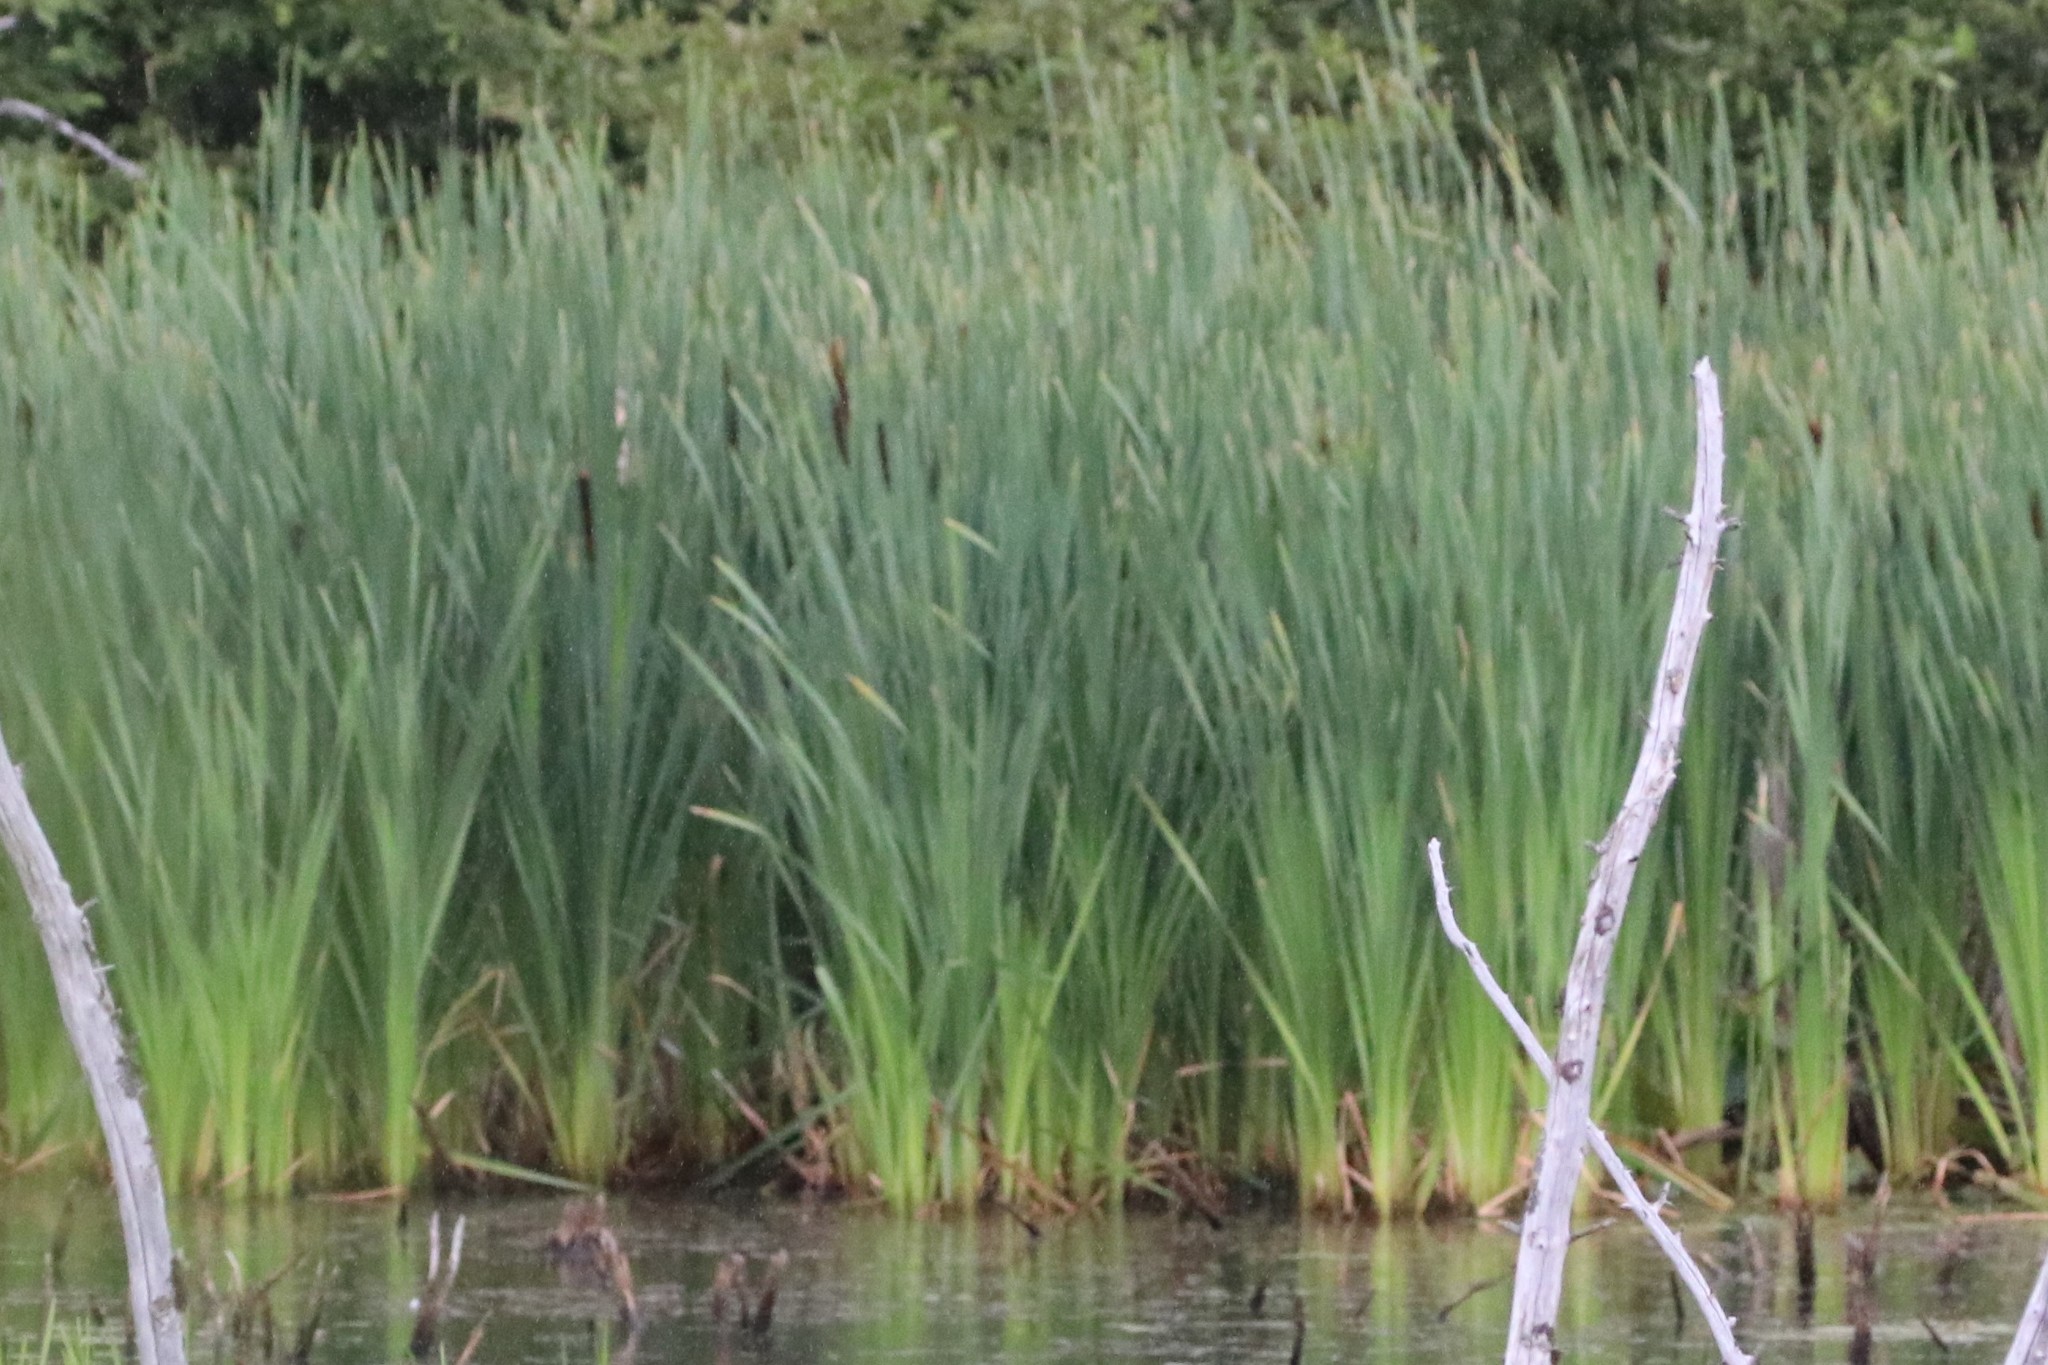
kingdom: Plantae
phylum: Tracheophyta
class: Liliopsida
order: Poales
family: Typhaceae
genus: Typha
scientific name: Typha latifolia
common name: Broadleaf cattail
